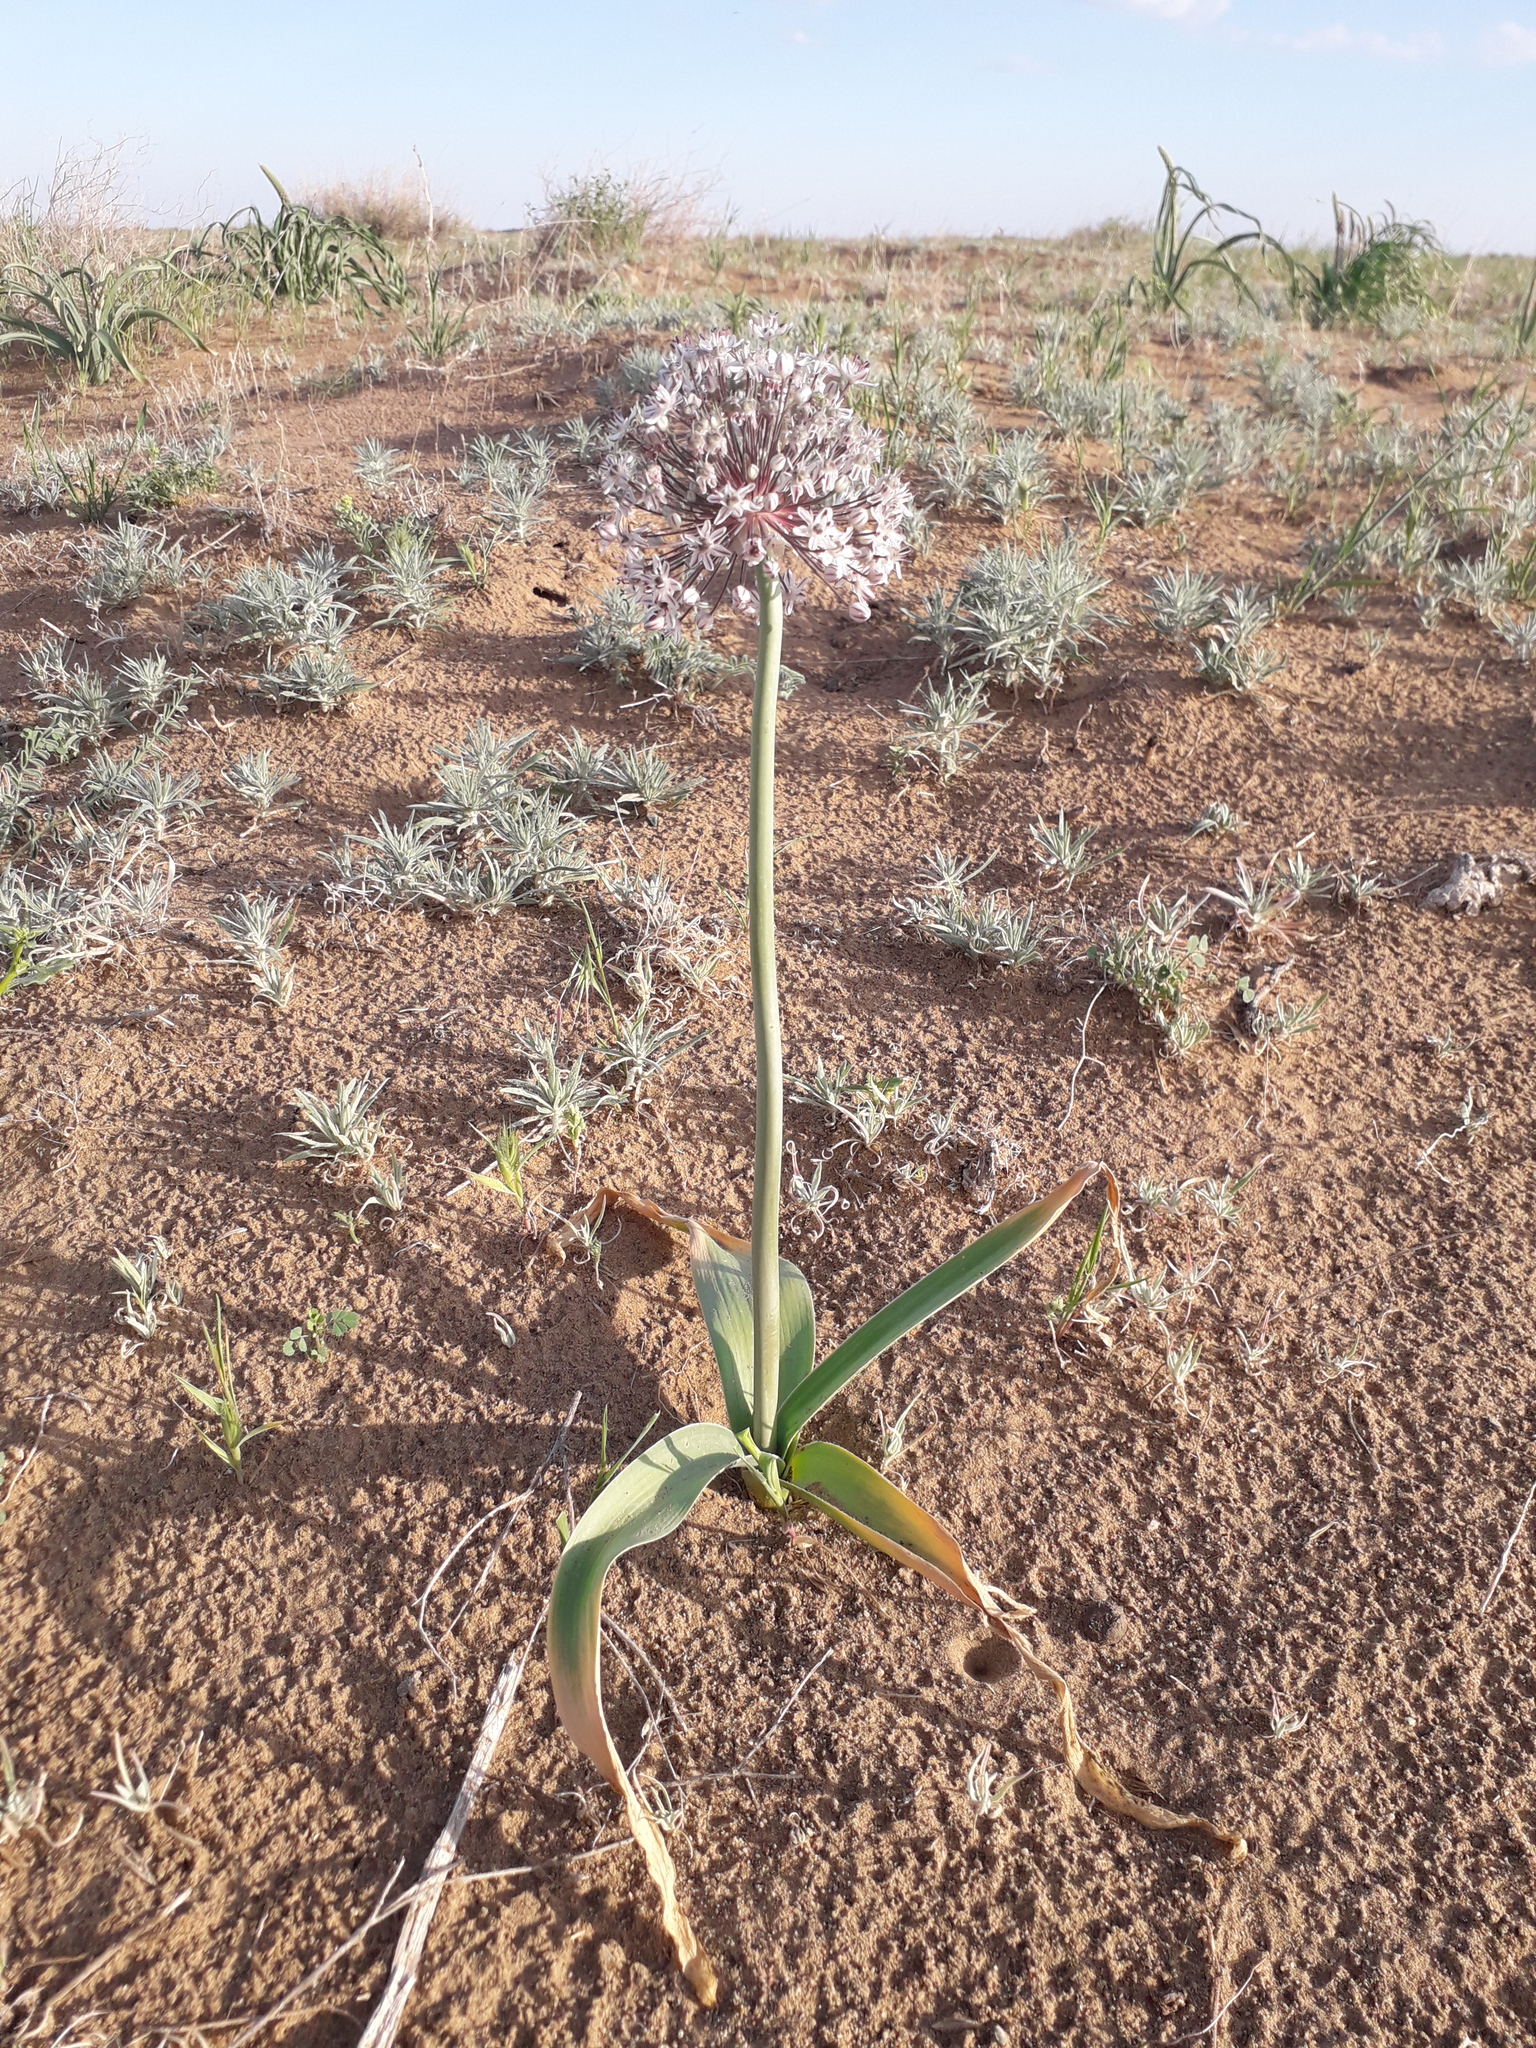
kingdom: Plantae
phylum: Tracheophyta
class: Liliopsida
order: Asparagales
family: Amaryllidaceae
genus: Allium
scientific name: Allium subscabrum
